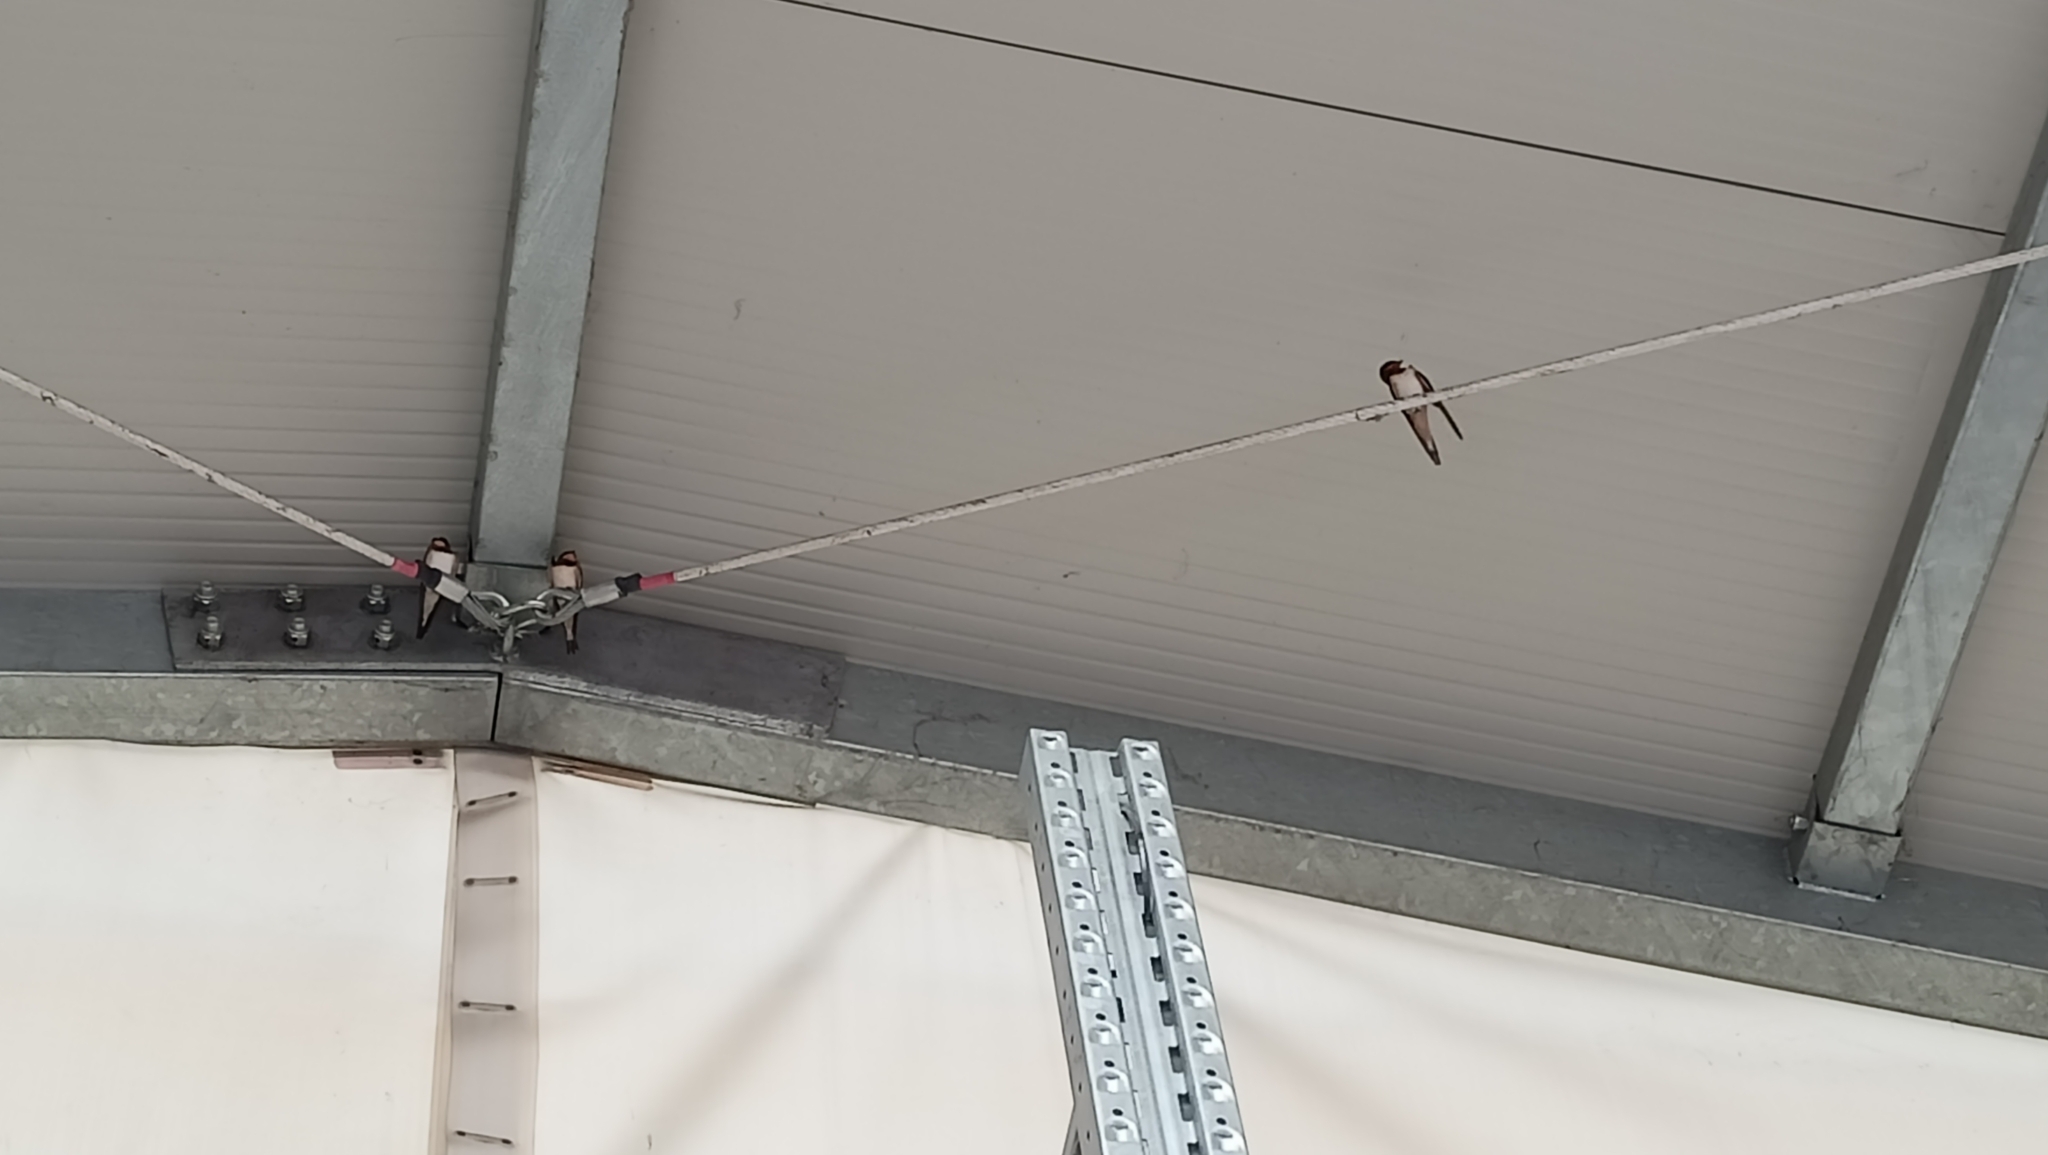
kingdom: Animalia
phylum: Chordata
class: Aves
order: Passeriformes
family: Hirundinidae
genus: Hirundo
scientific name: Hirundo rustica
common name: Barn swallow
